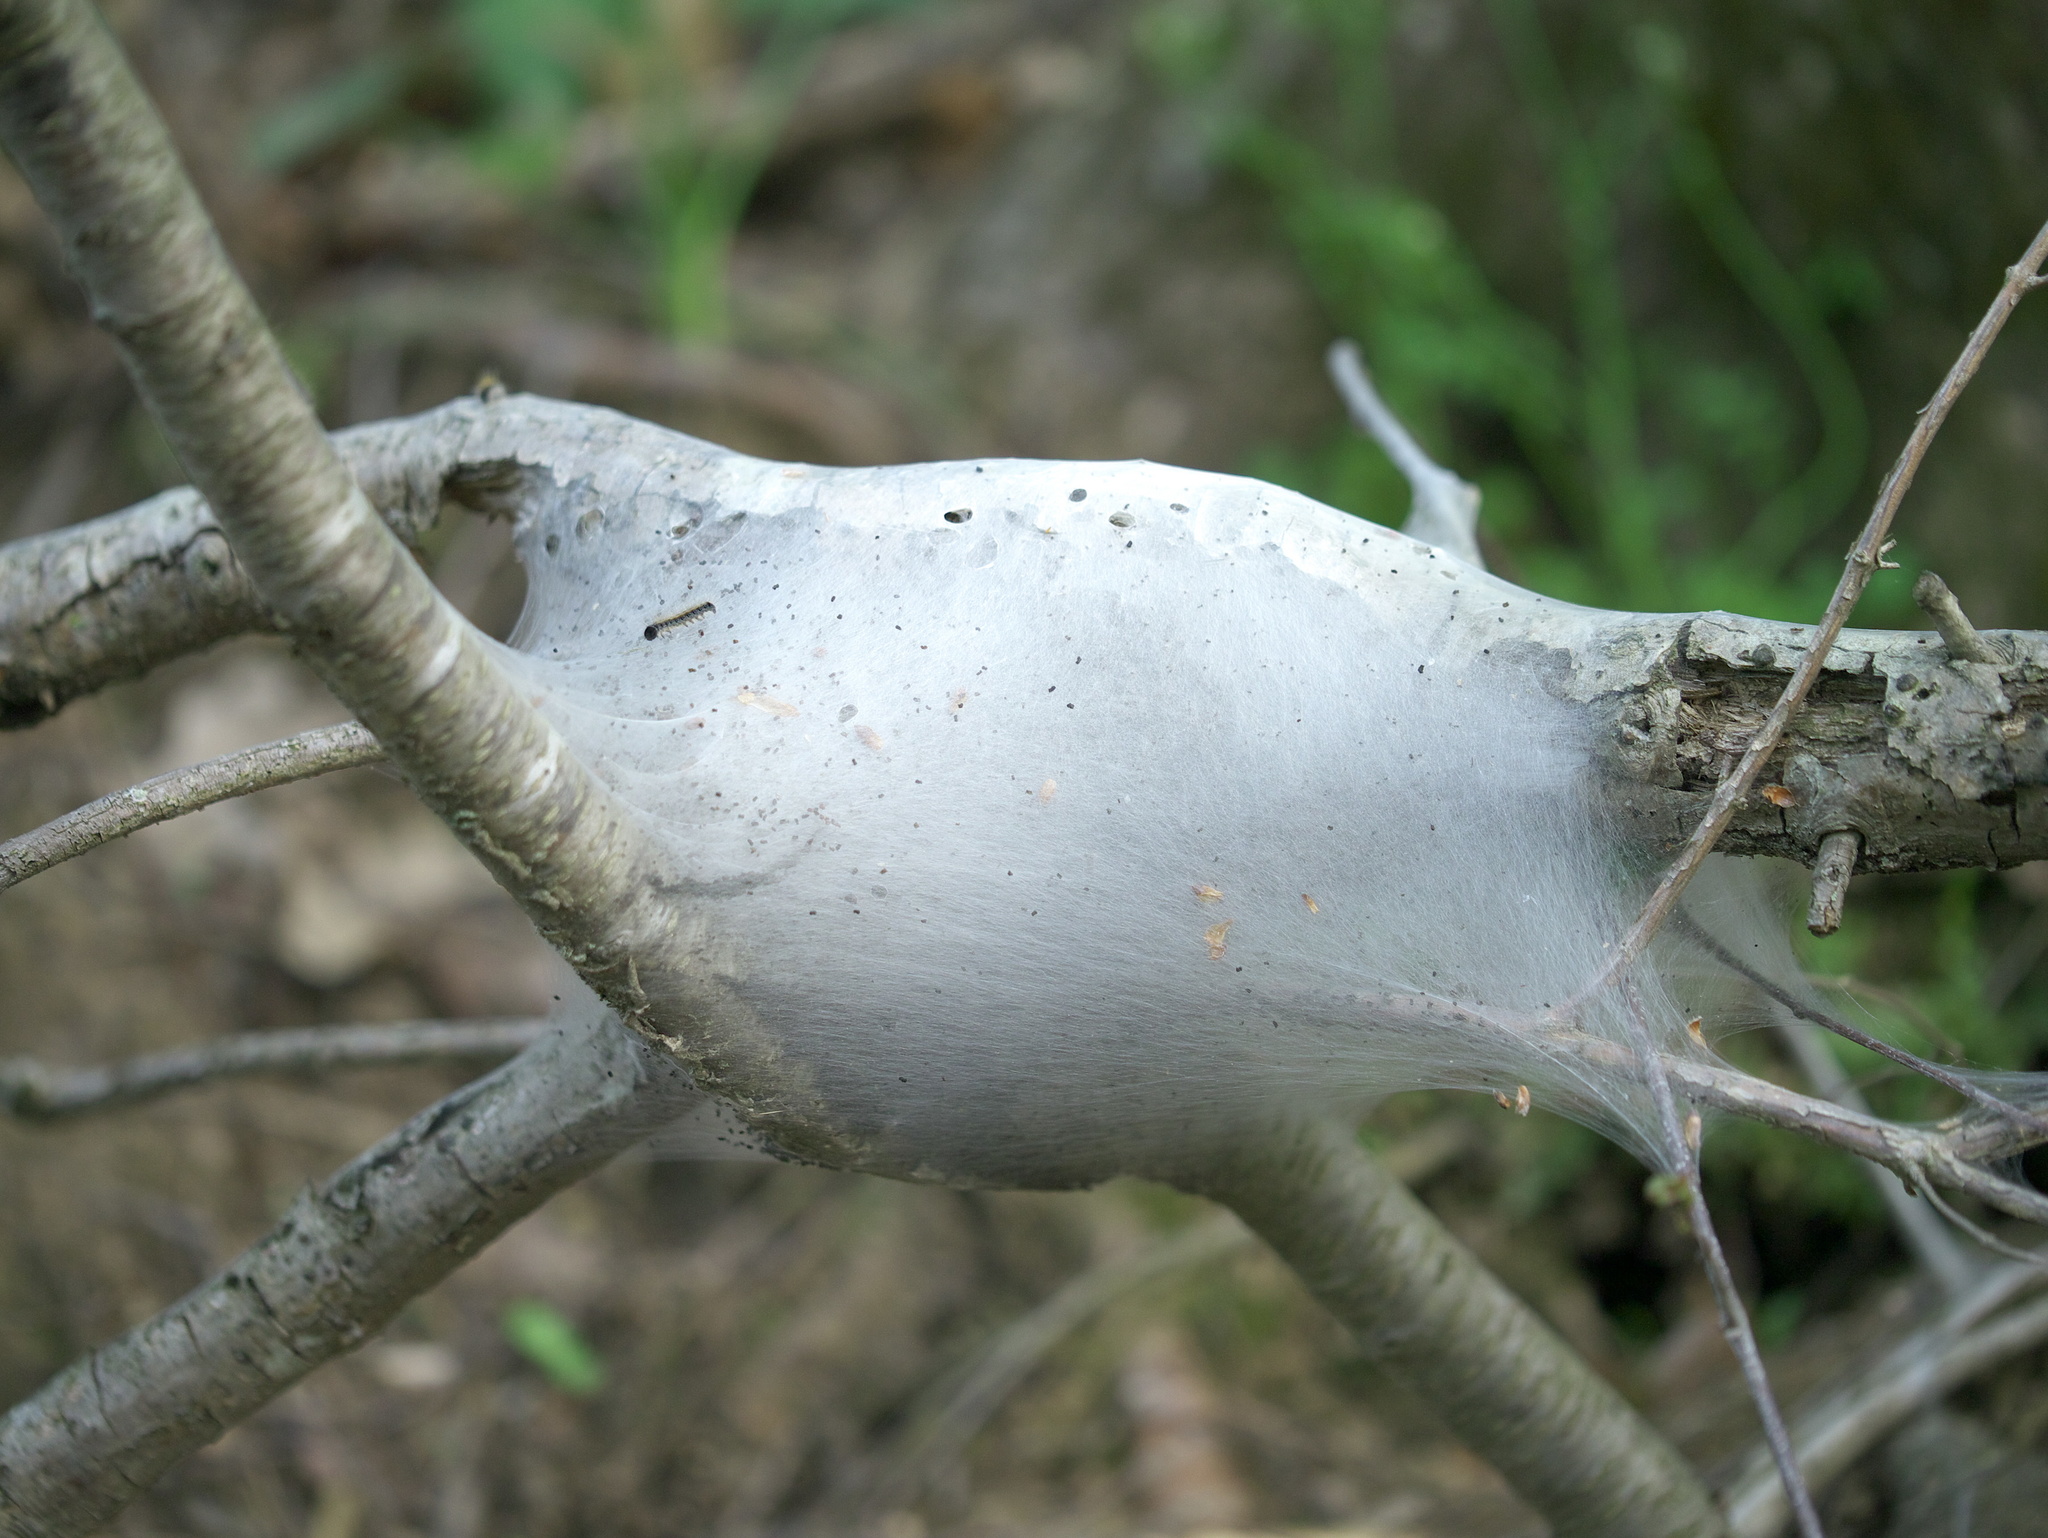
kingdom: Animalia
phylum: Arthropoda
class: Insecta
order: Lepidoptera
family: Lasiocampidae
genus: Malacosoma
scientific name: Malacosoma americana
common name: Eastern tent caterpillar moth
